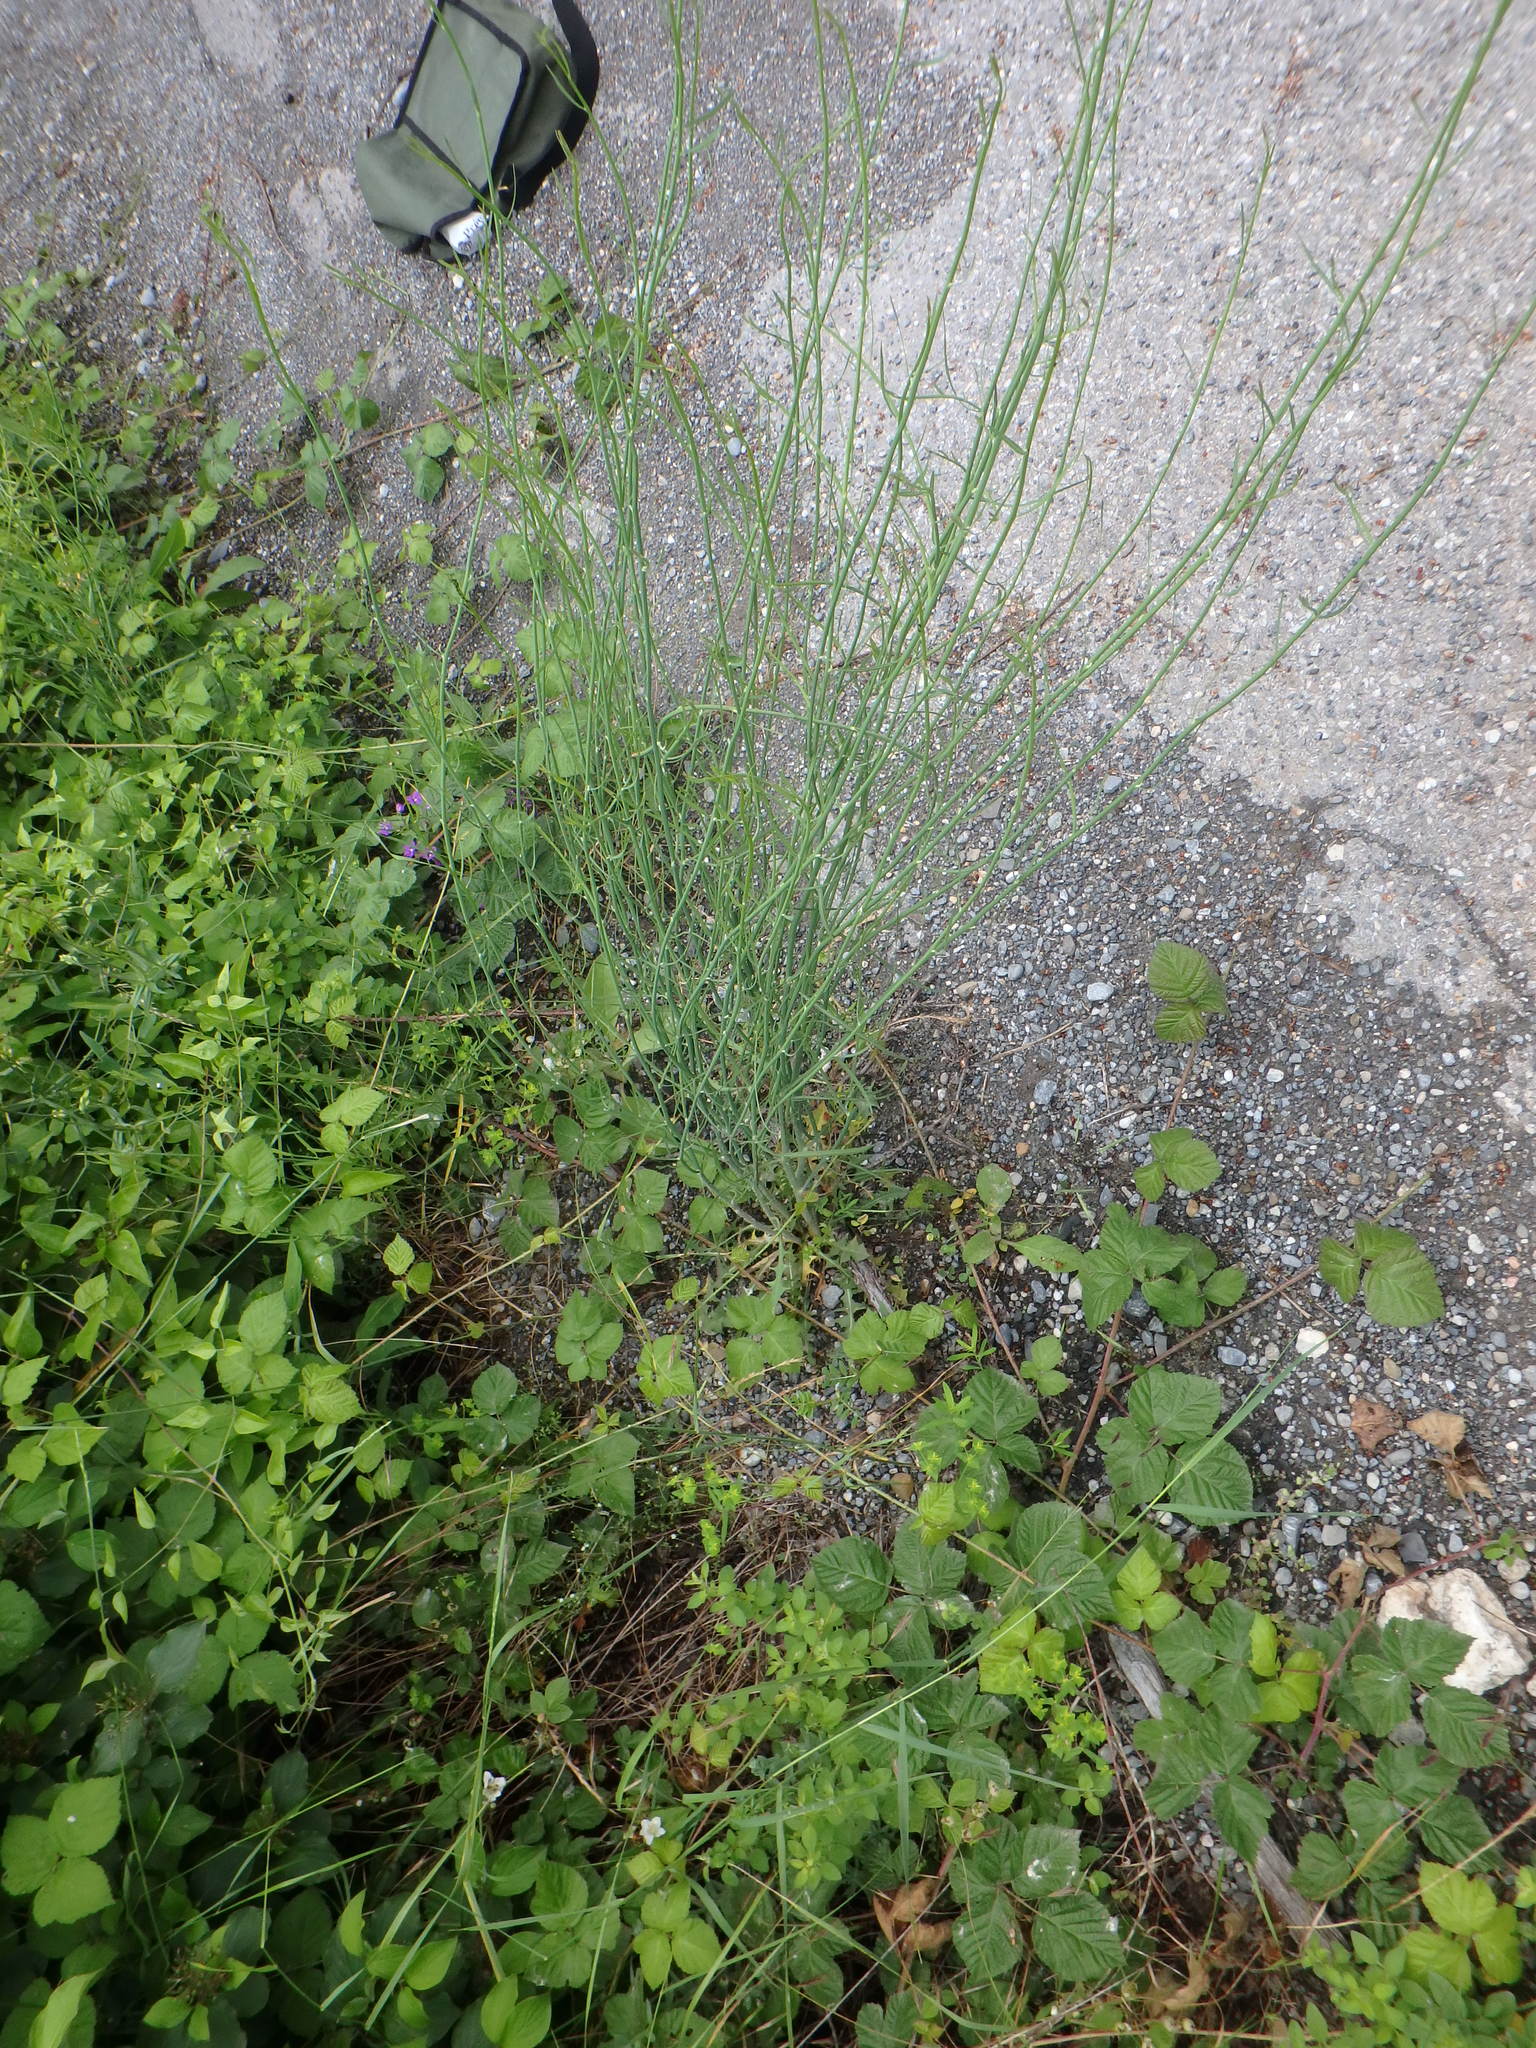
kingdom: Plantae
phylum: Tracheophyta
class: Magnoliopsida
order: Asterales
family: Asteraceae
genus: Chondrilla
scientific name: Chondrilla juncea
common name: Skeleton weed
